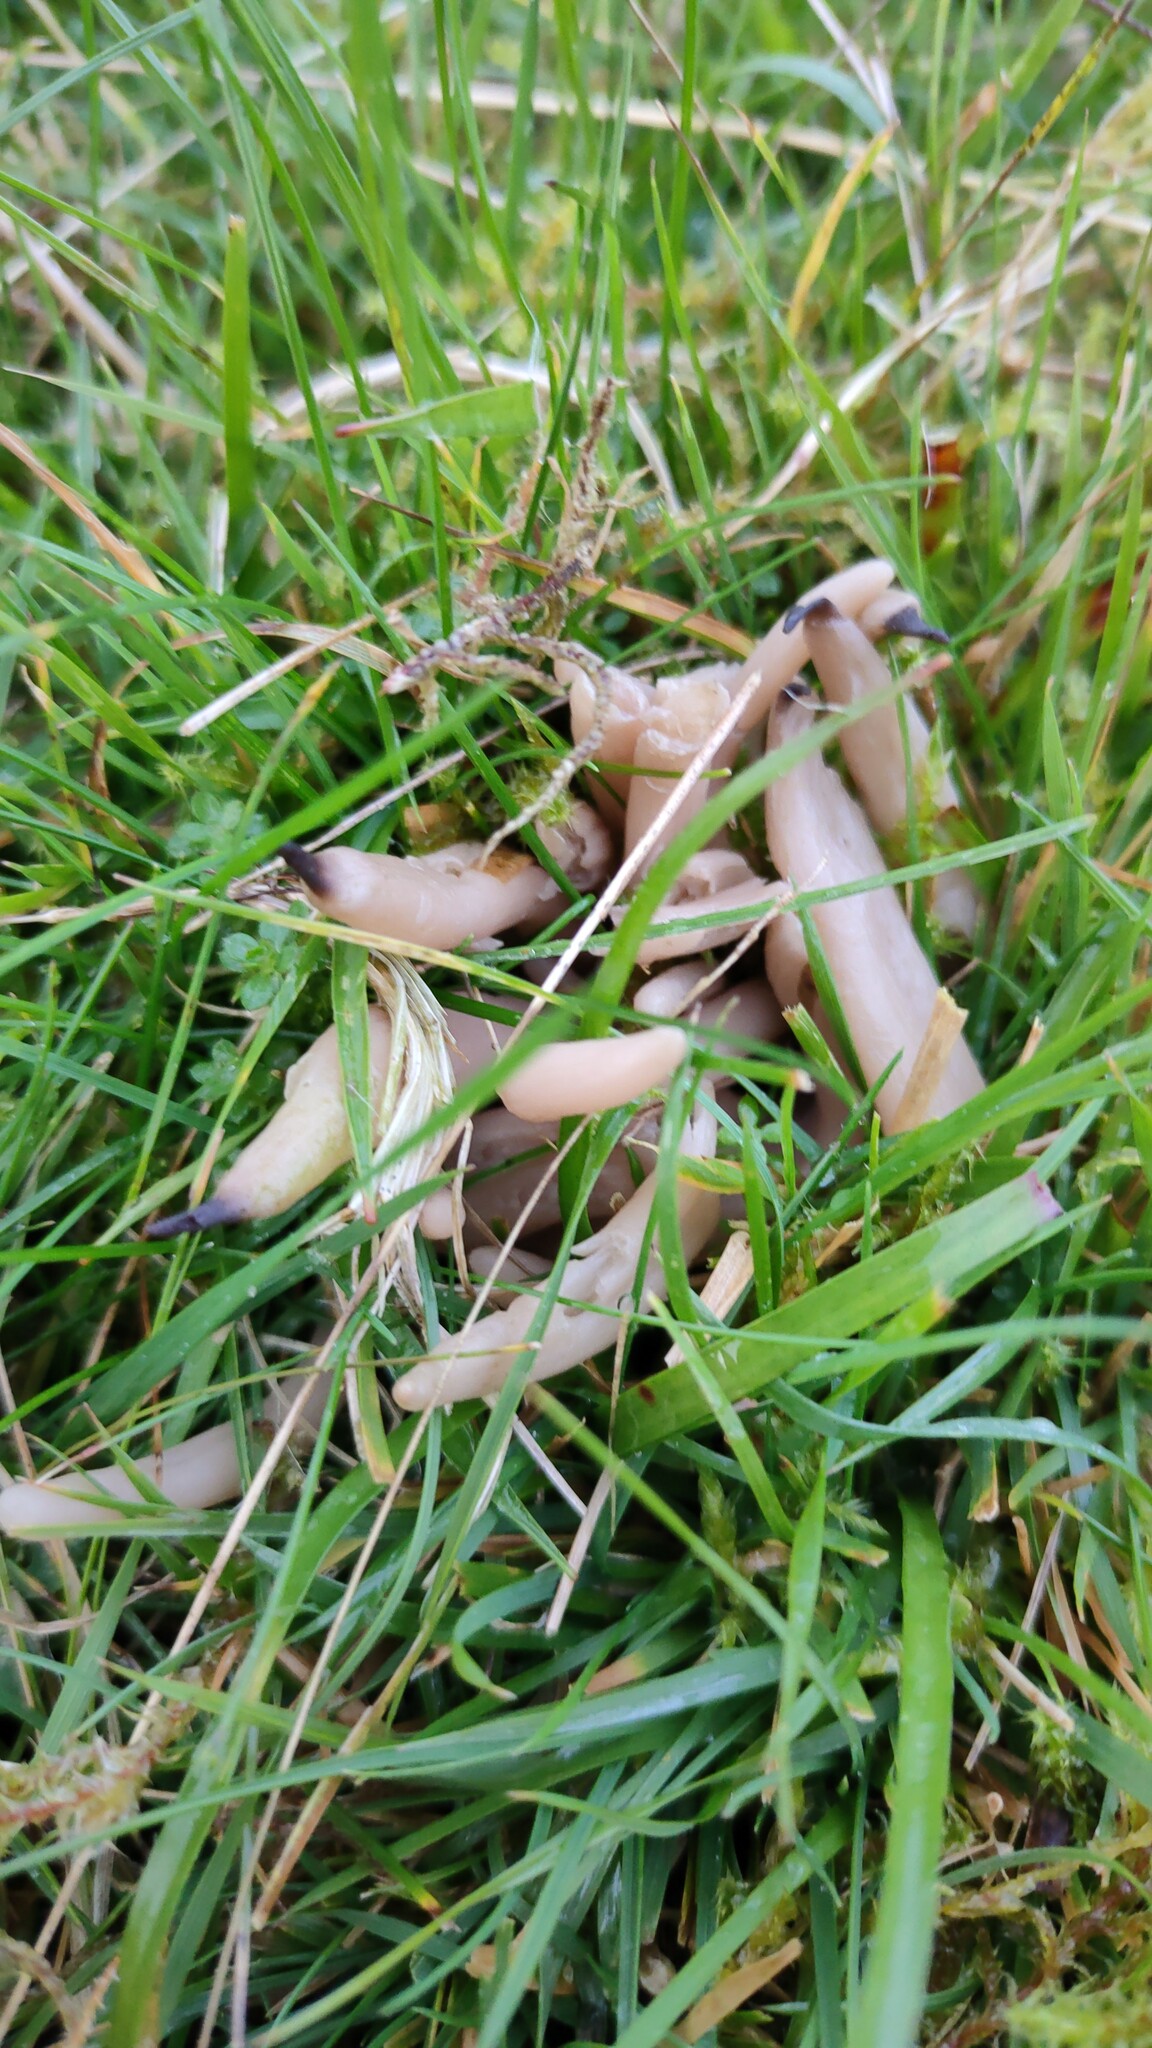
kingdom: Fungi
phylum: Basidiomycota
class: Agaricomycetes
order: Agaricales
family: Clavariaceae
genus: Clavaria
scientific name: Clavaria fumosa
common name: Smoky spindles
